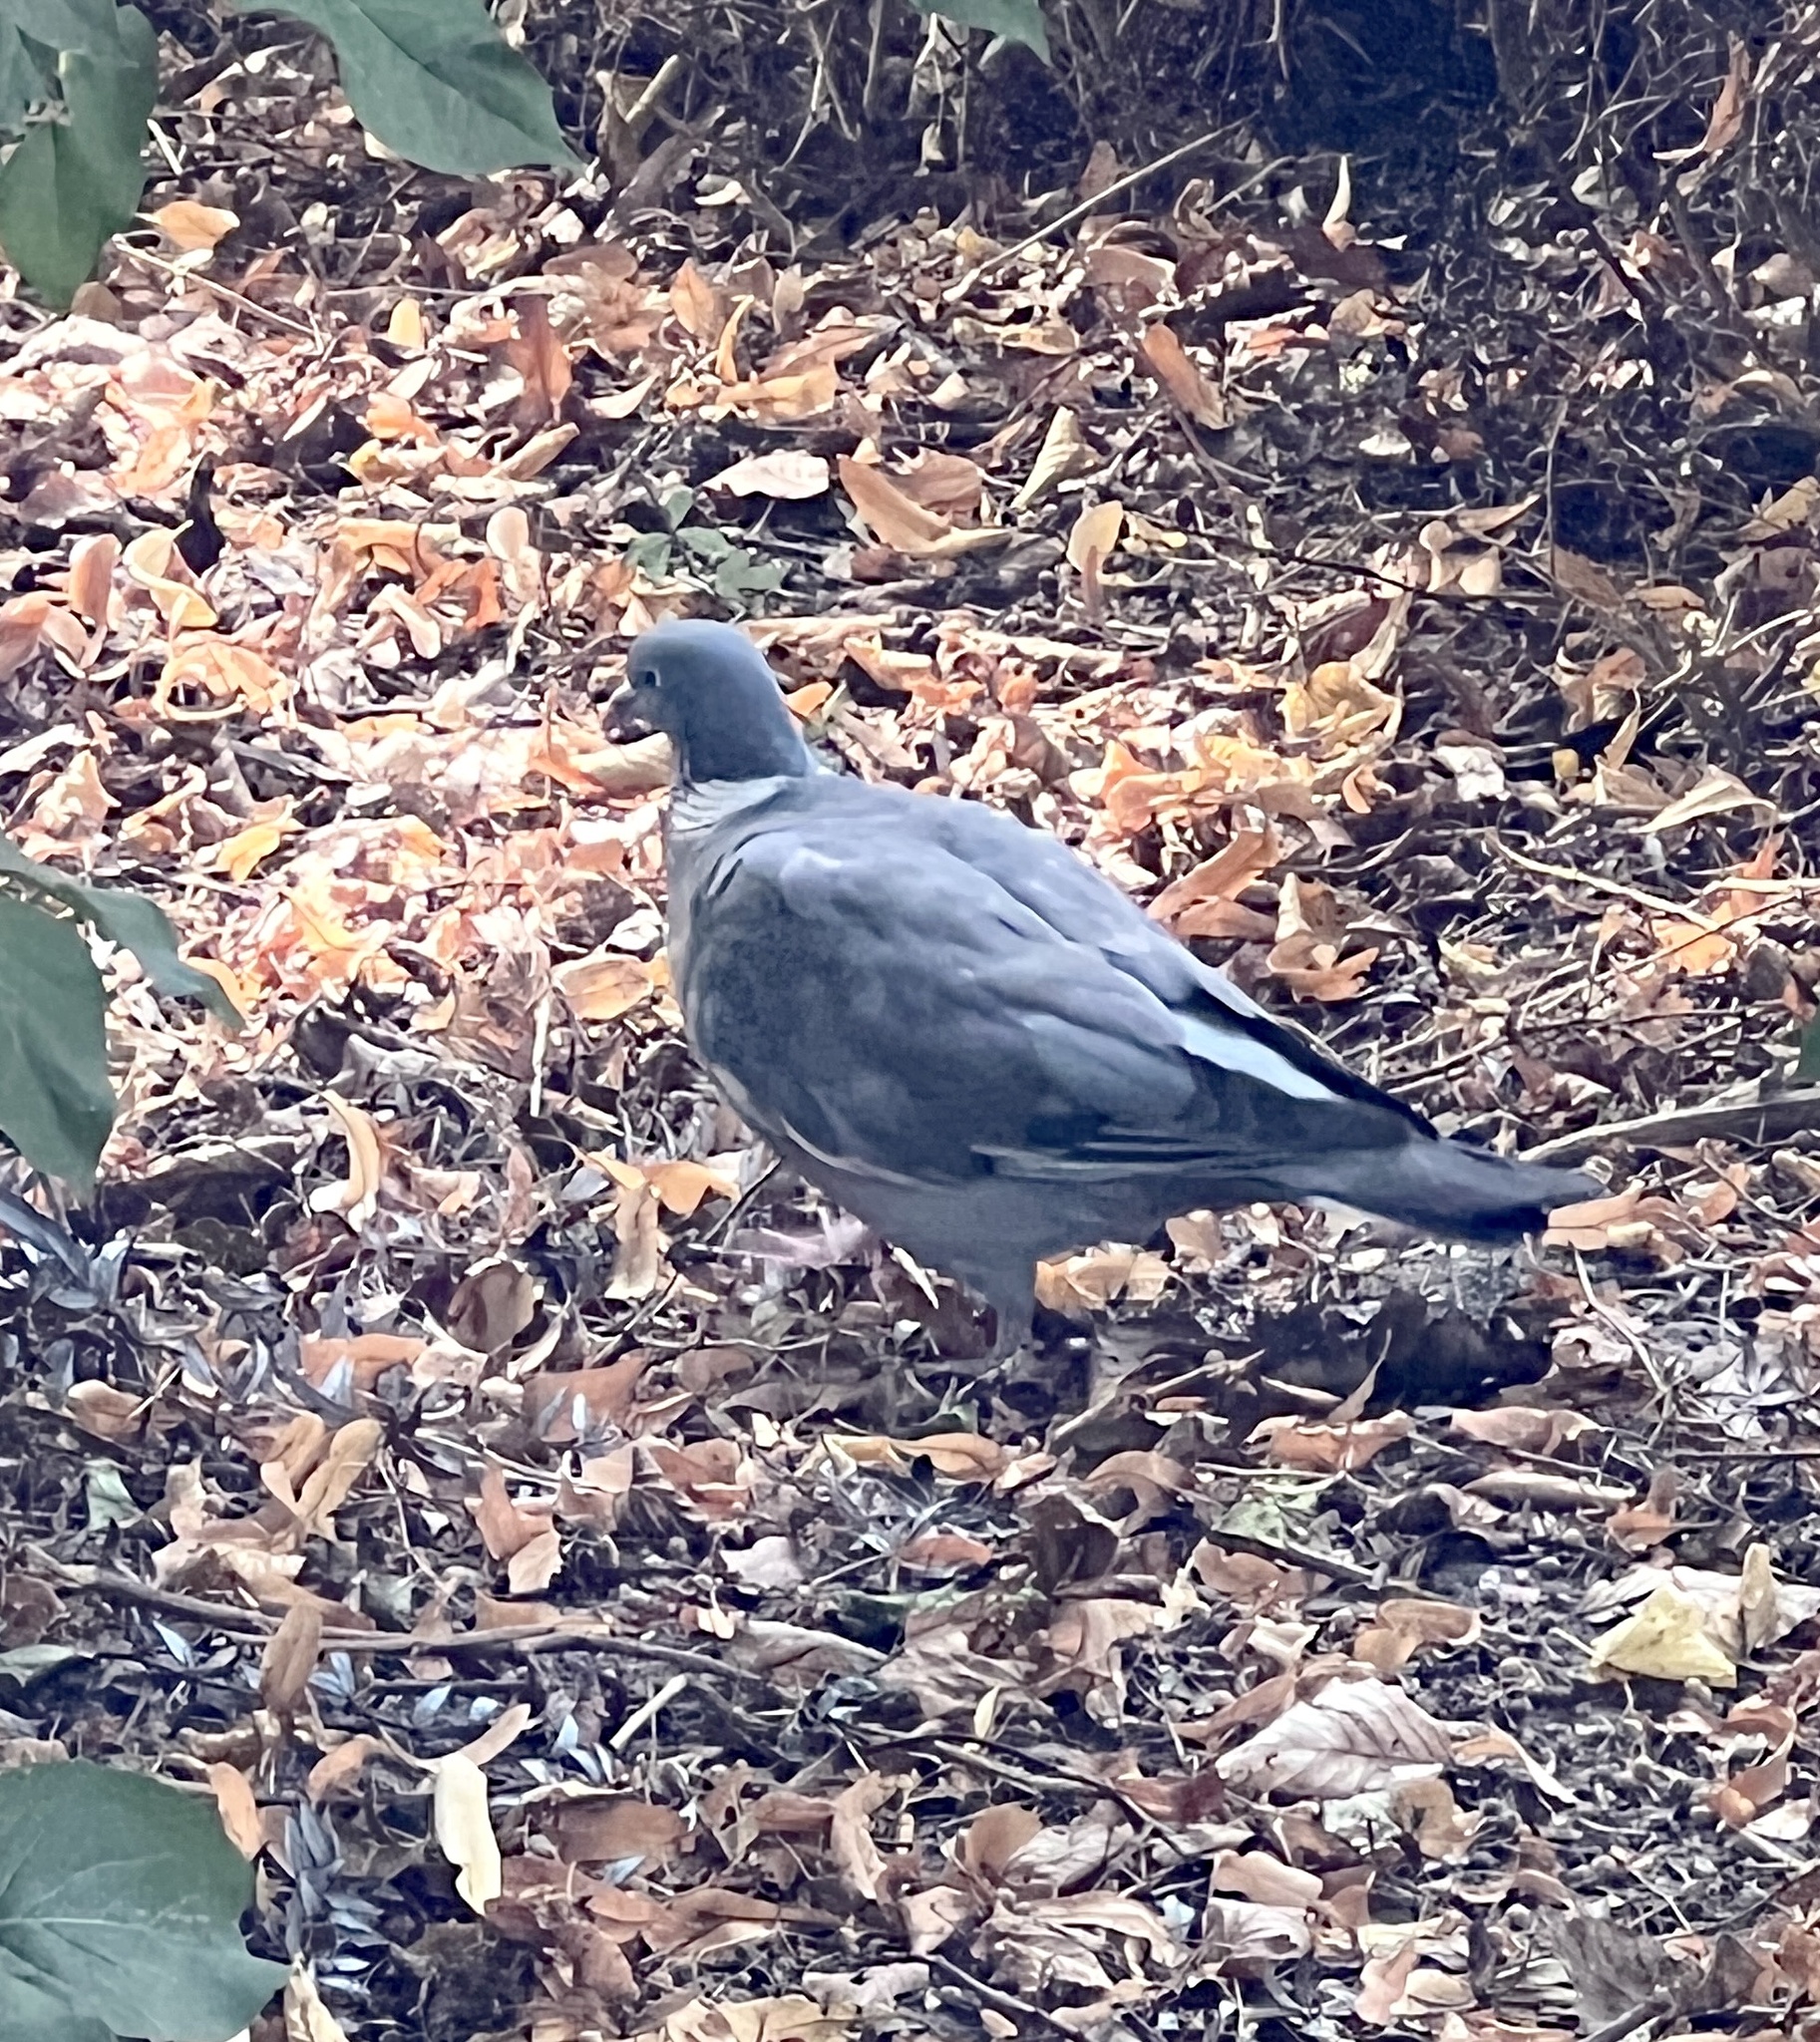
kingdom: Animalia
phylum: Chordata
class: Aves
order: Columbiformes
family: Columbidae
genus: Columba
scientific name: Columba palumbus
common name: Common wood pigeon
